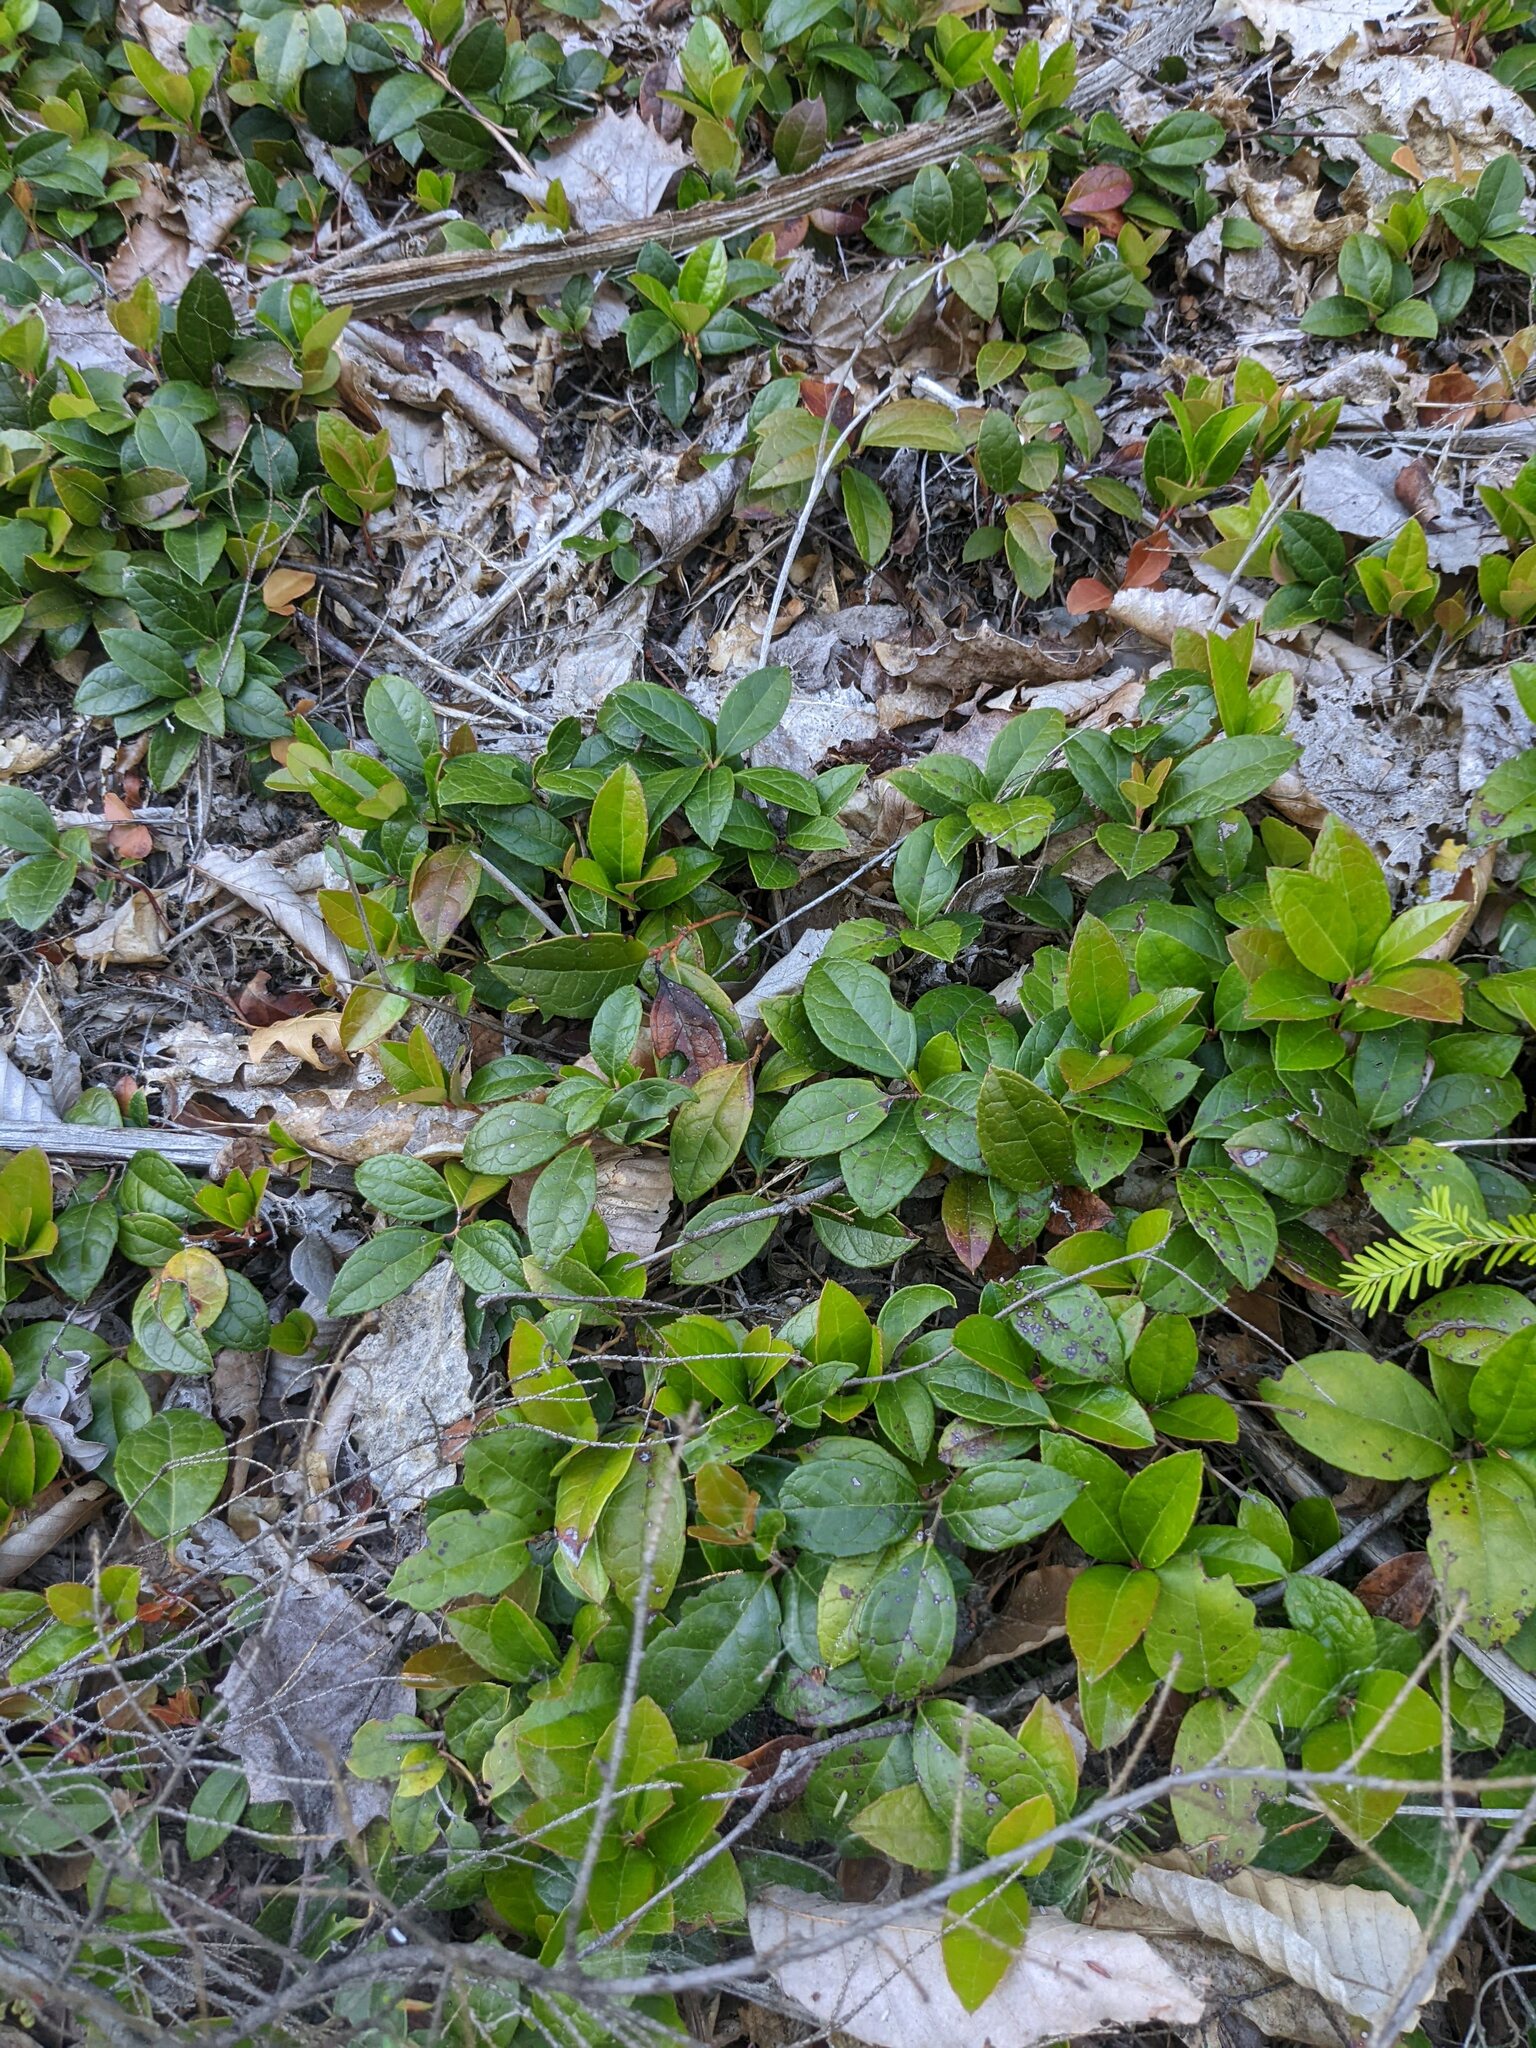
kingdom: Plantae
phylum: Tracheophyta
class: Magnoliopsida
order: Ericales
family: Ericaceae
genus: Gaultheria
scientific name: Gaultheria procumbens
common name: Checkerberry
